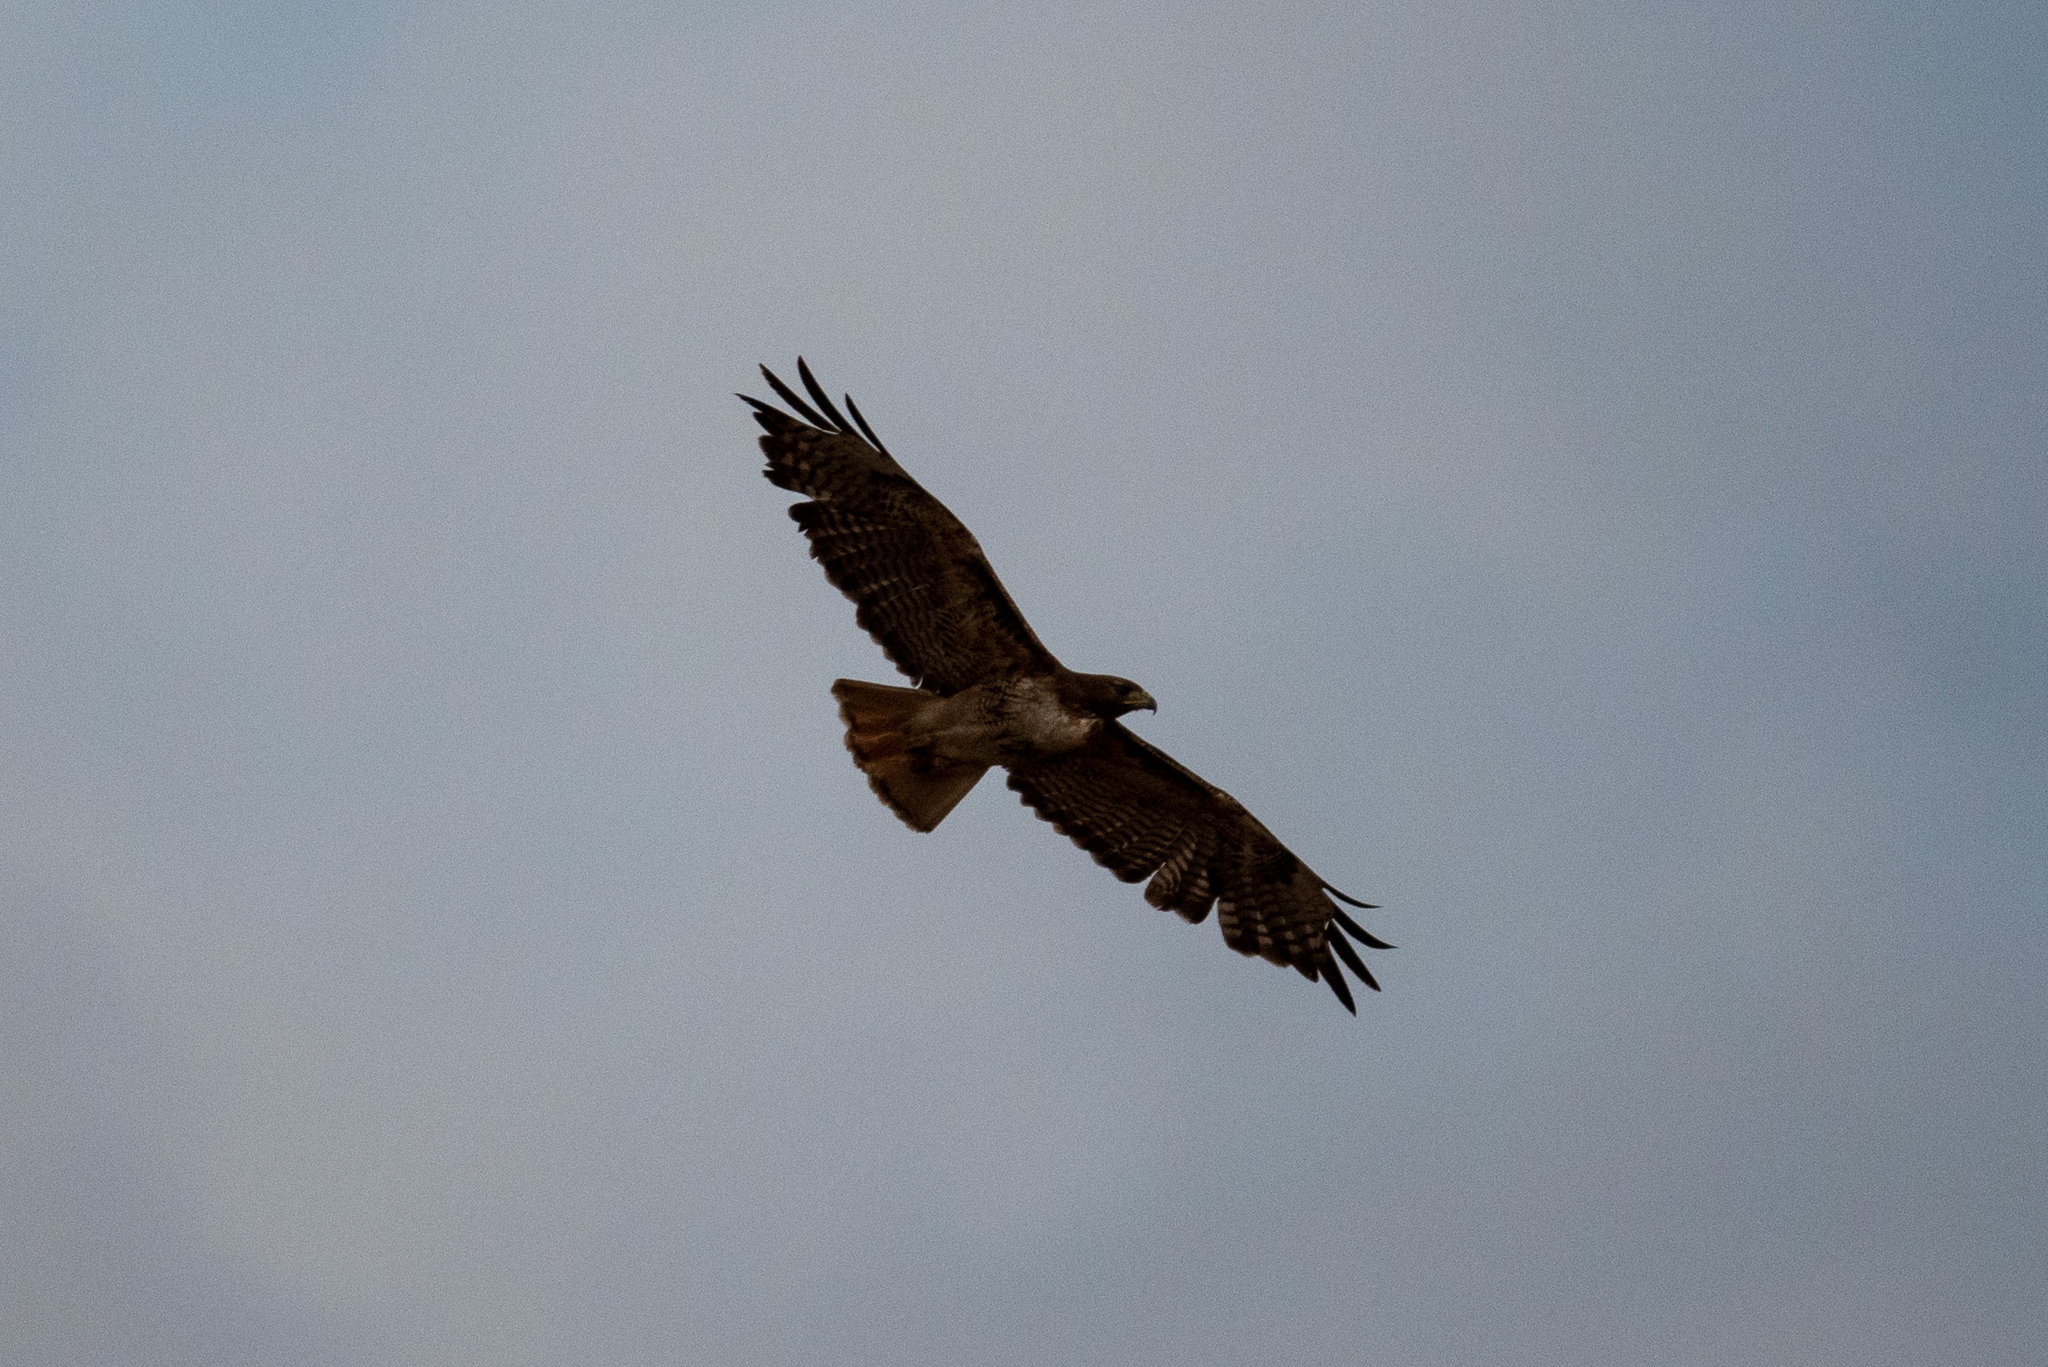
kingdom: Animalia
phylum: Chordata
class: Aves
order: Accipitriformes
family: Accipitridae
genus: Buteo
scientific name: Buteo jamaicensis
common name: Red-tailed hawk
